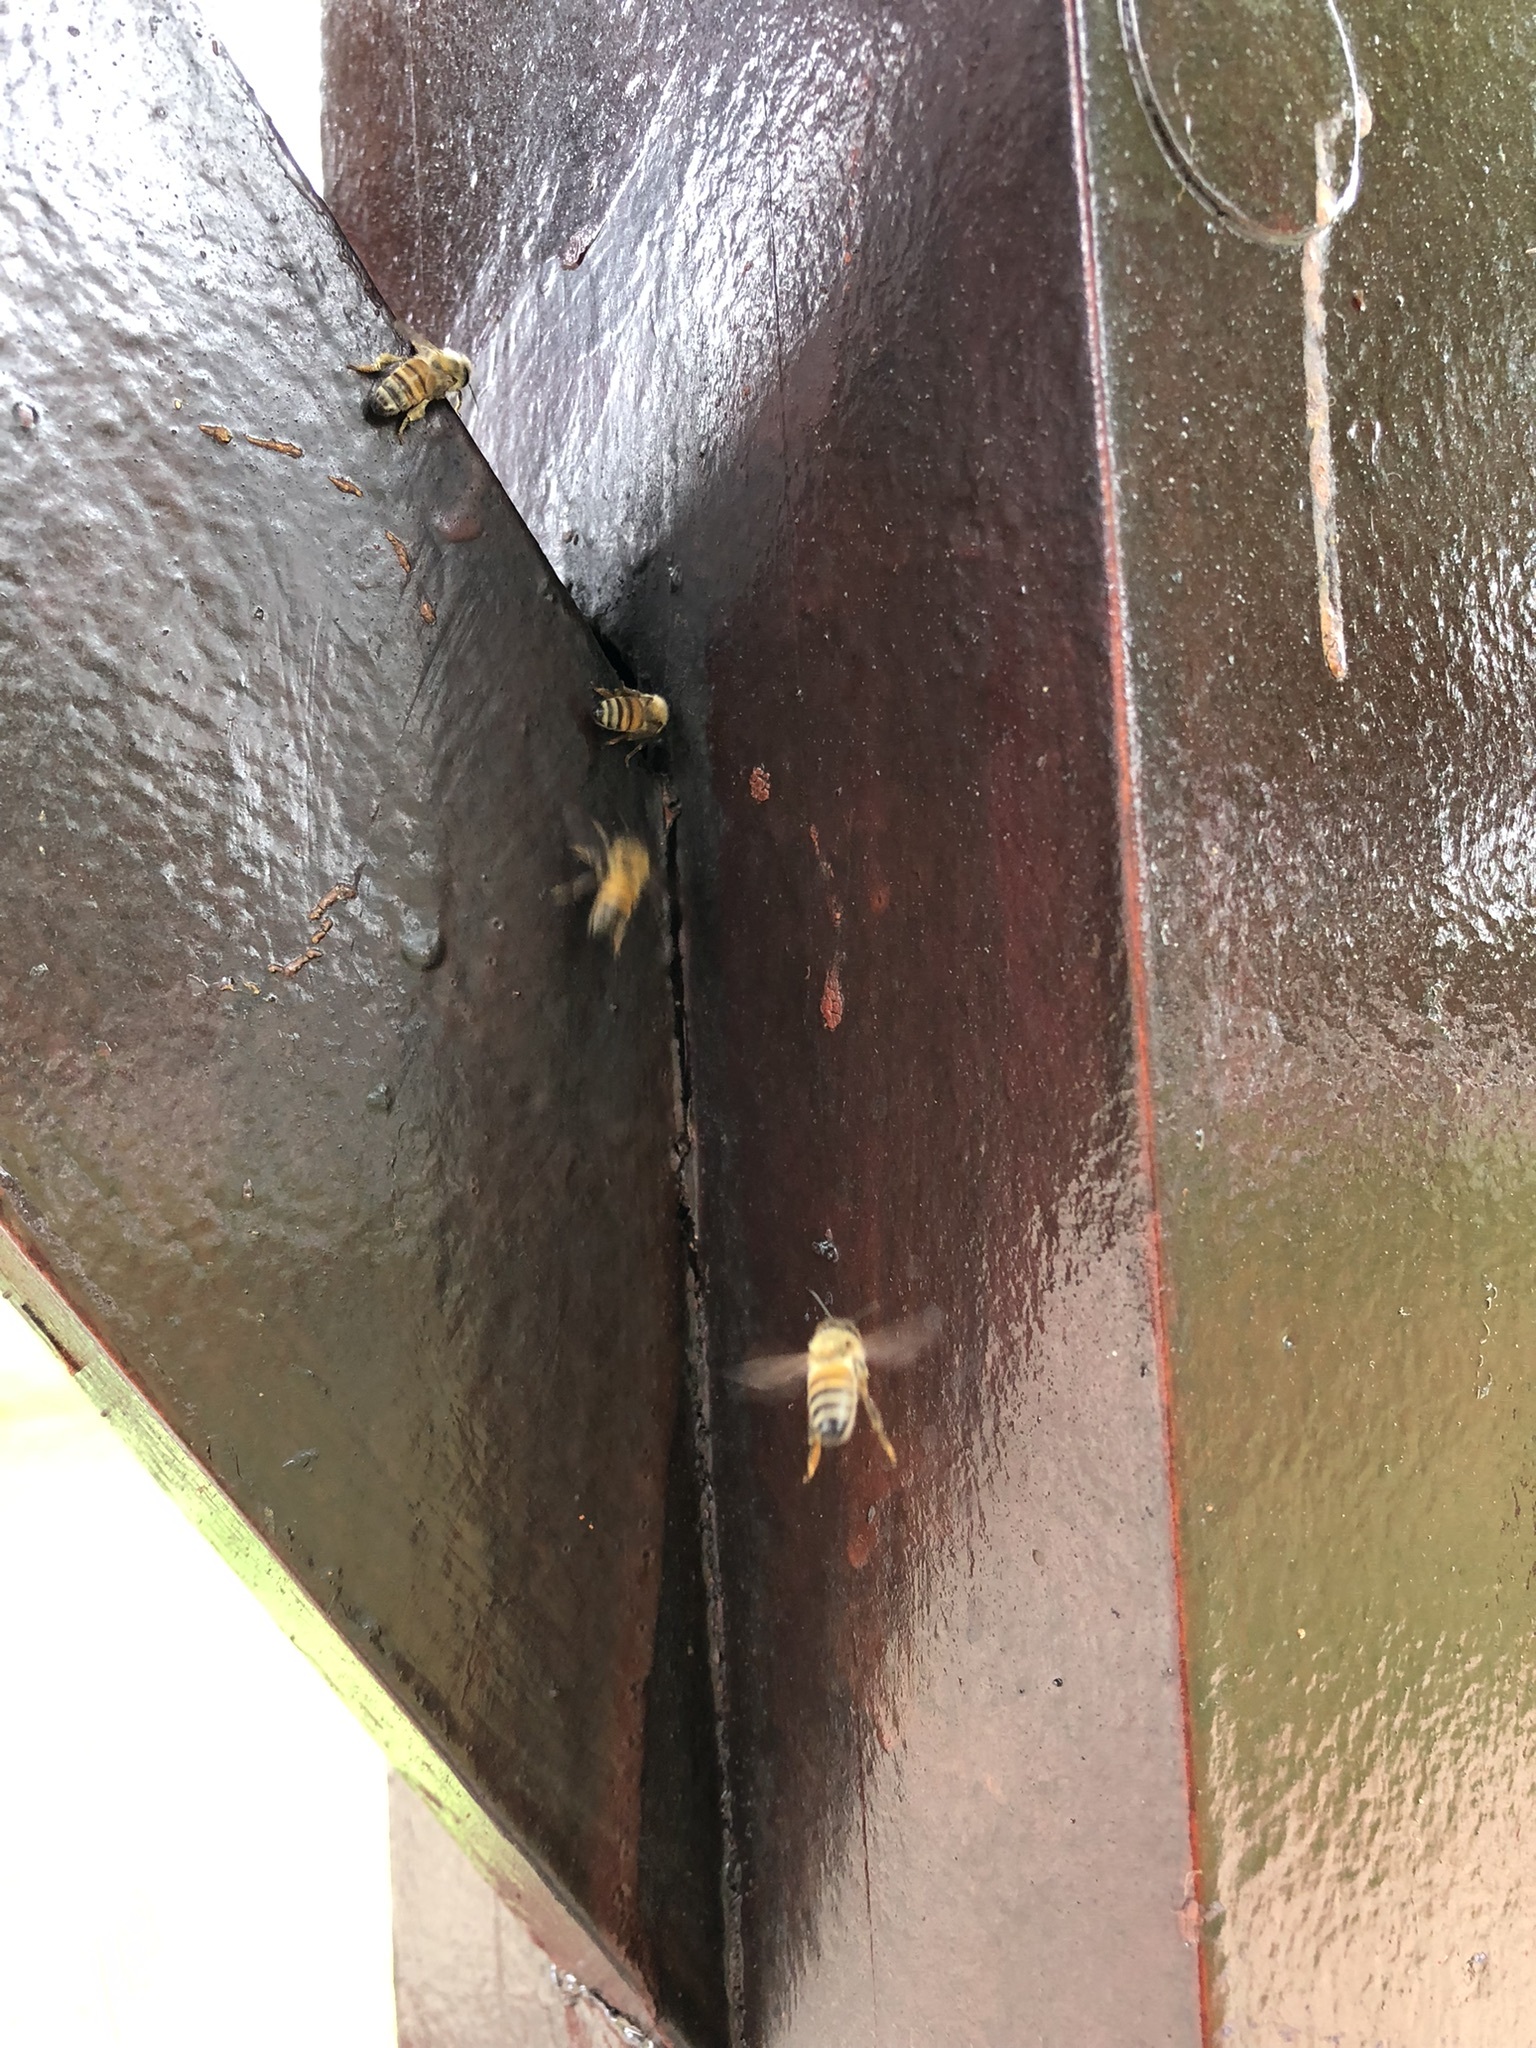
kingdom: Animalia
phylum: Arthropoda
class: Insecta
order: Hymenoptera
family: Apidae
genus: Apis
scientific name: Apis mellifera
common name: Honey bee
